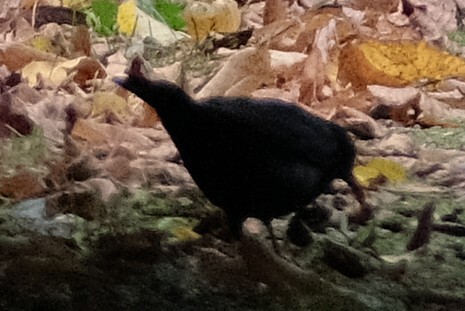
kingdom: Animalia
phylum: Chordata
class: Aves
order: Passeriformes
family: Turdidae
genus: Turdus
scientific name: Turdus merula
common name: Common blackbird
